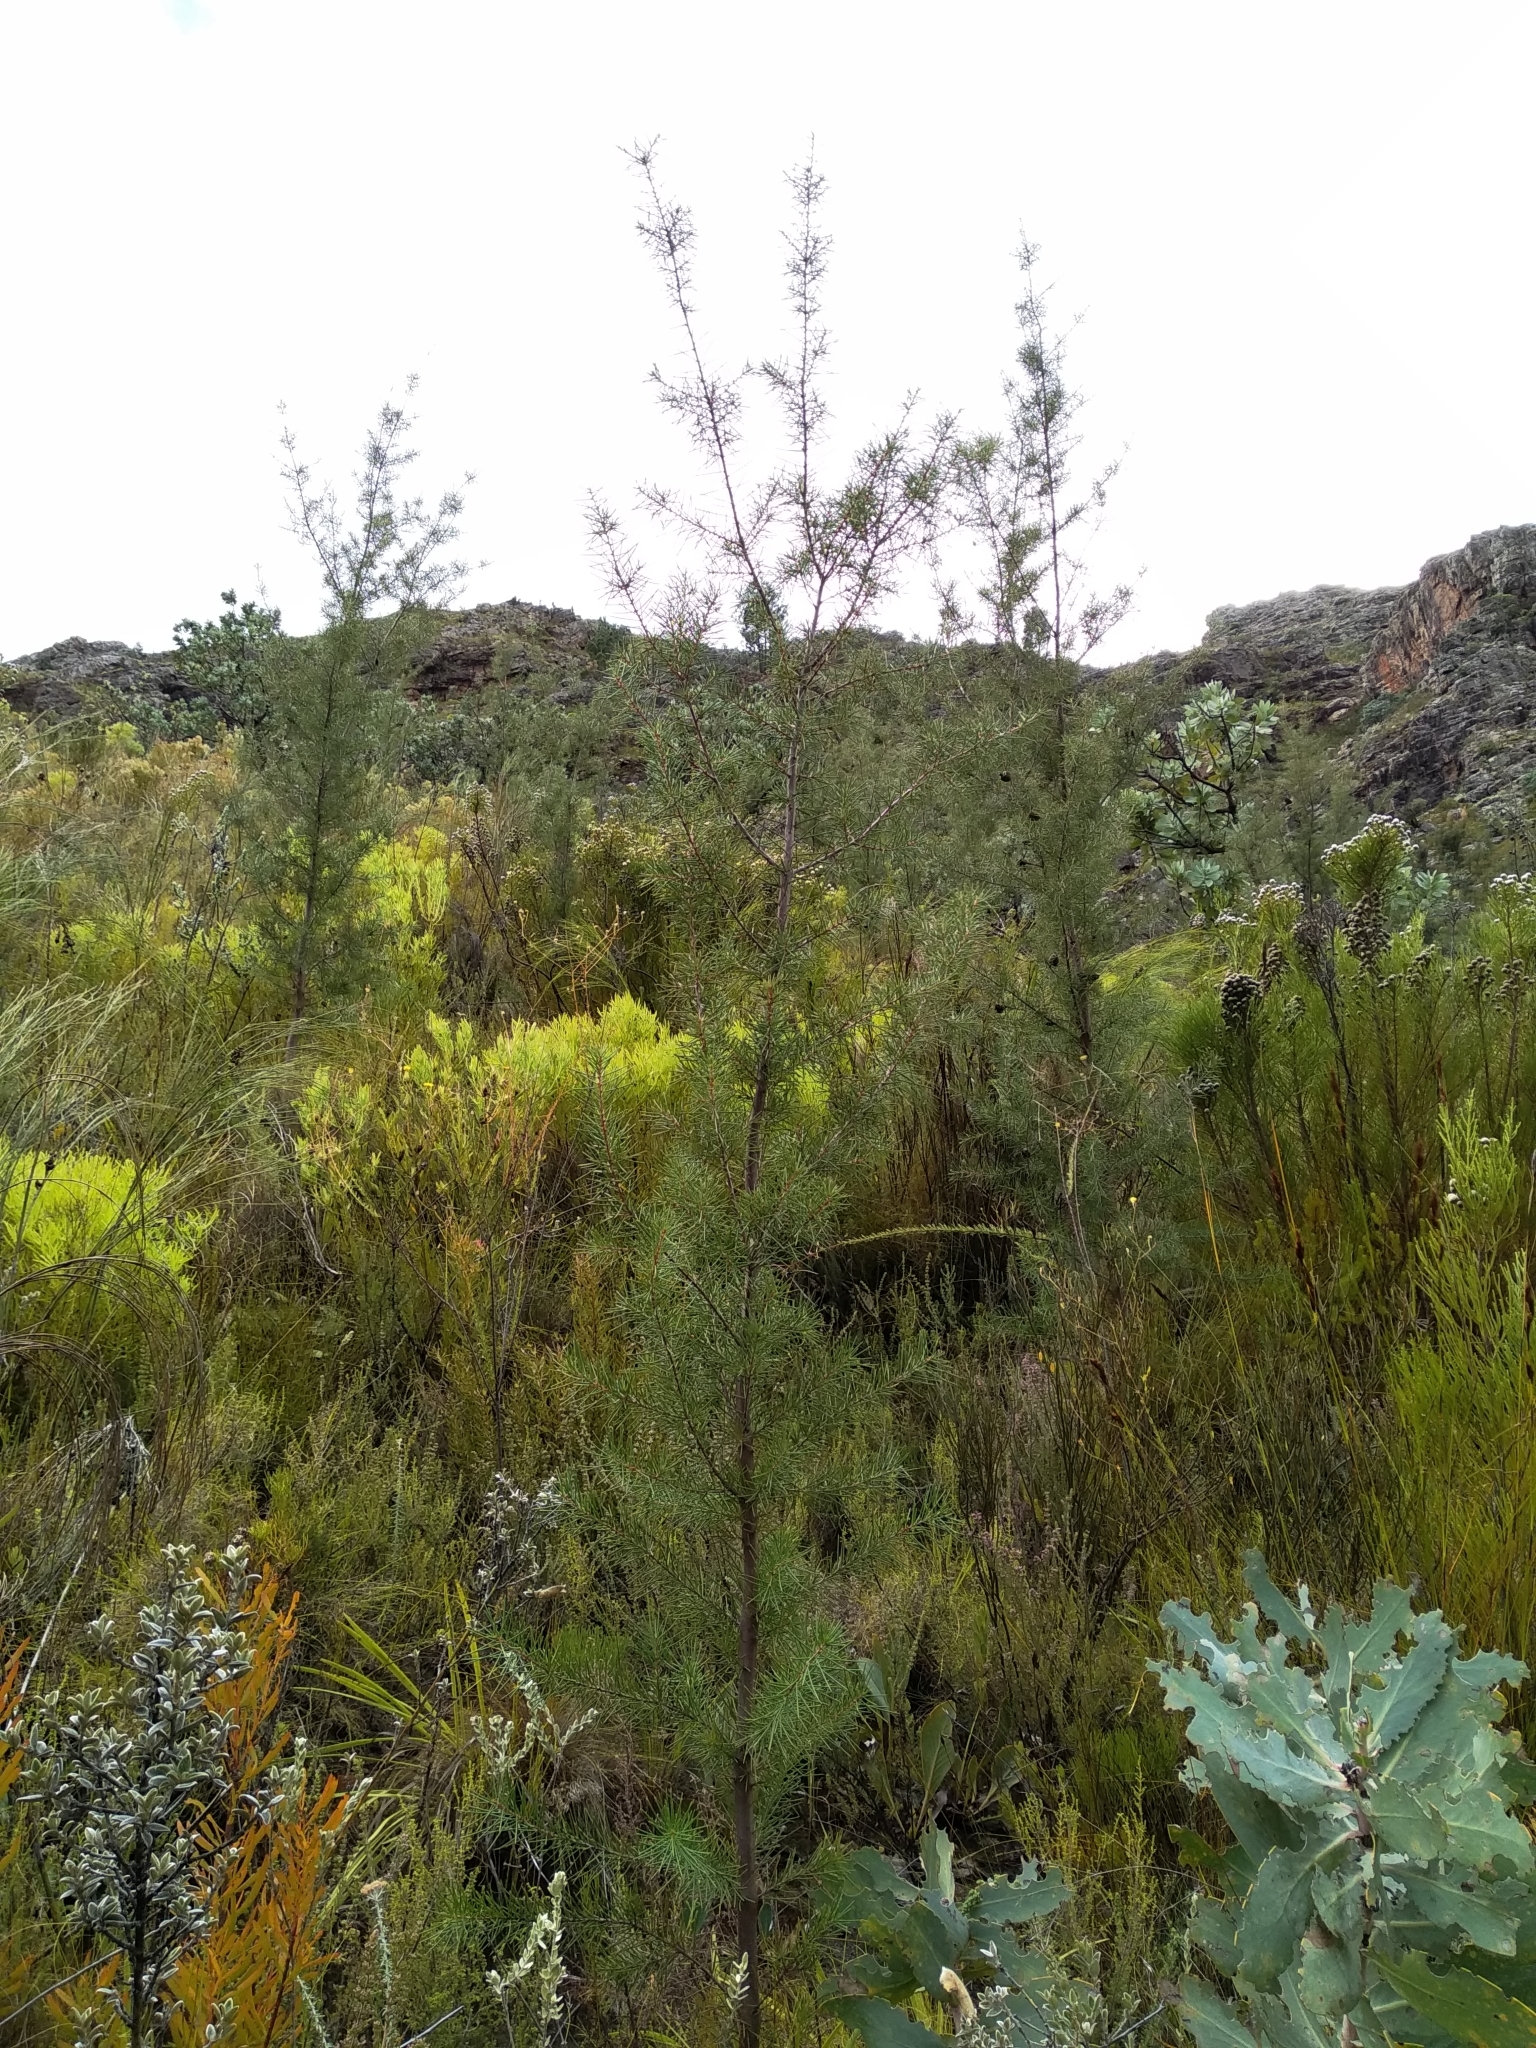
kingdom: Plantae
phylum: Tracheophyta
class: Magnoliopsida
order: Proteales
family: Proteaceae
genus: Hakea
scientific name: Hakea sericea
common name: Needle bush
